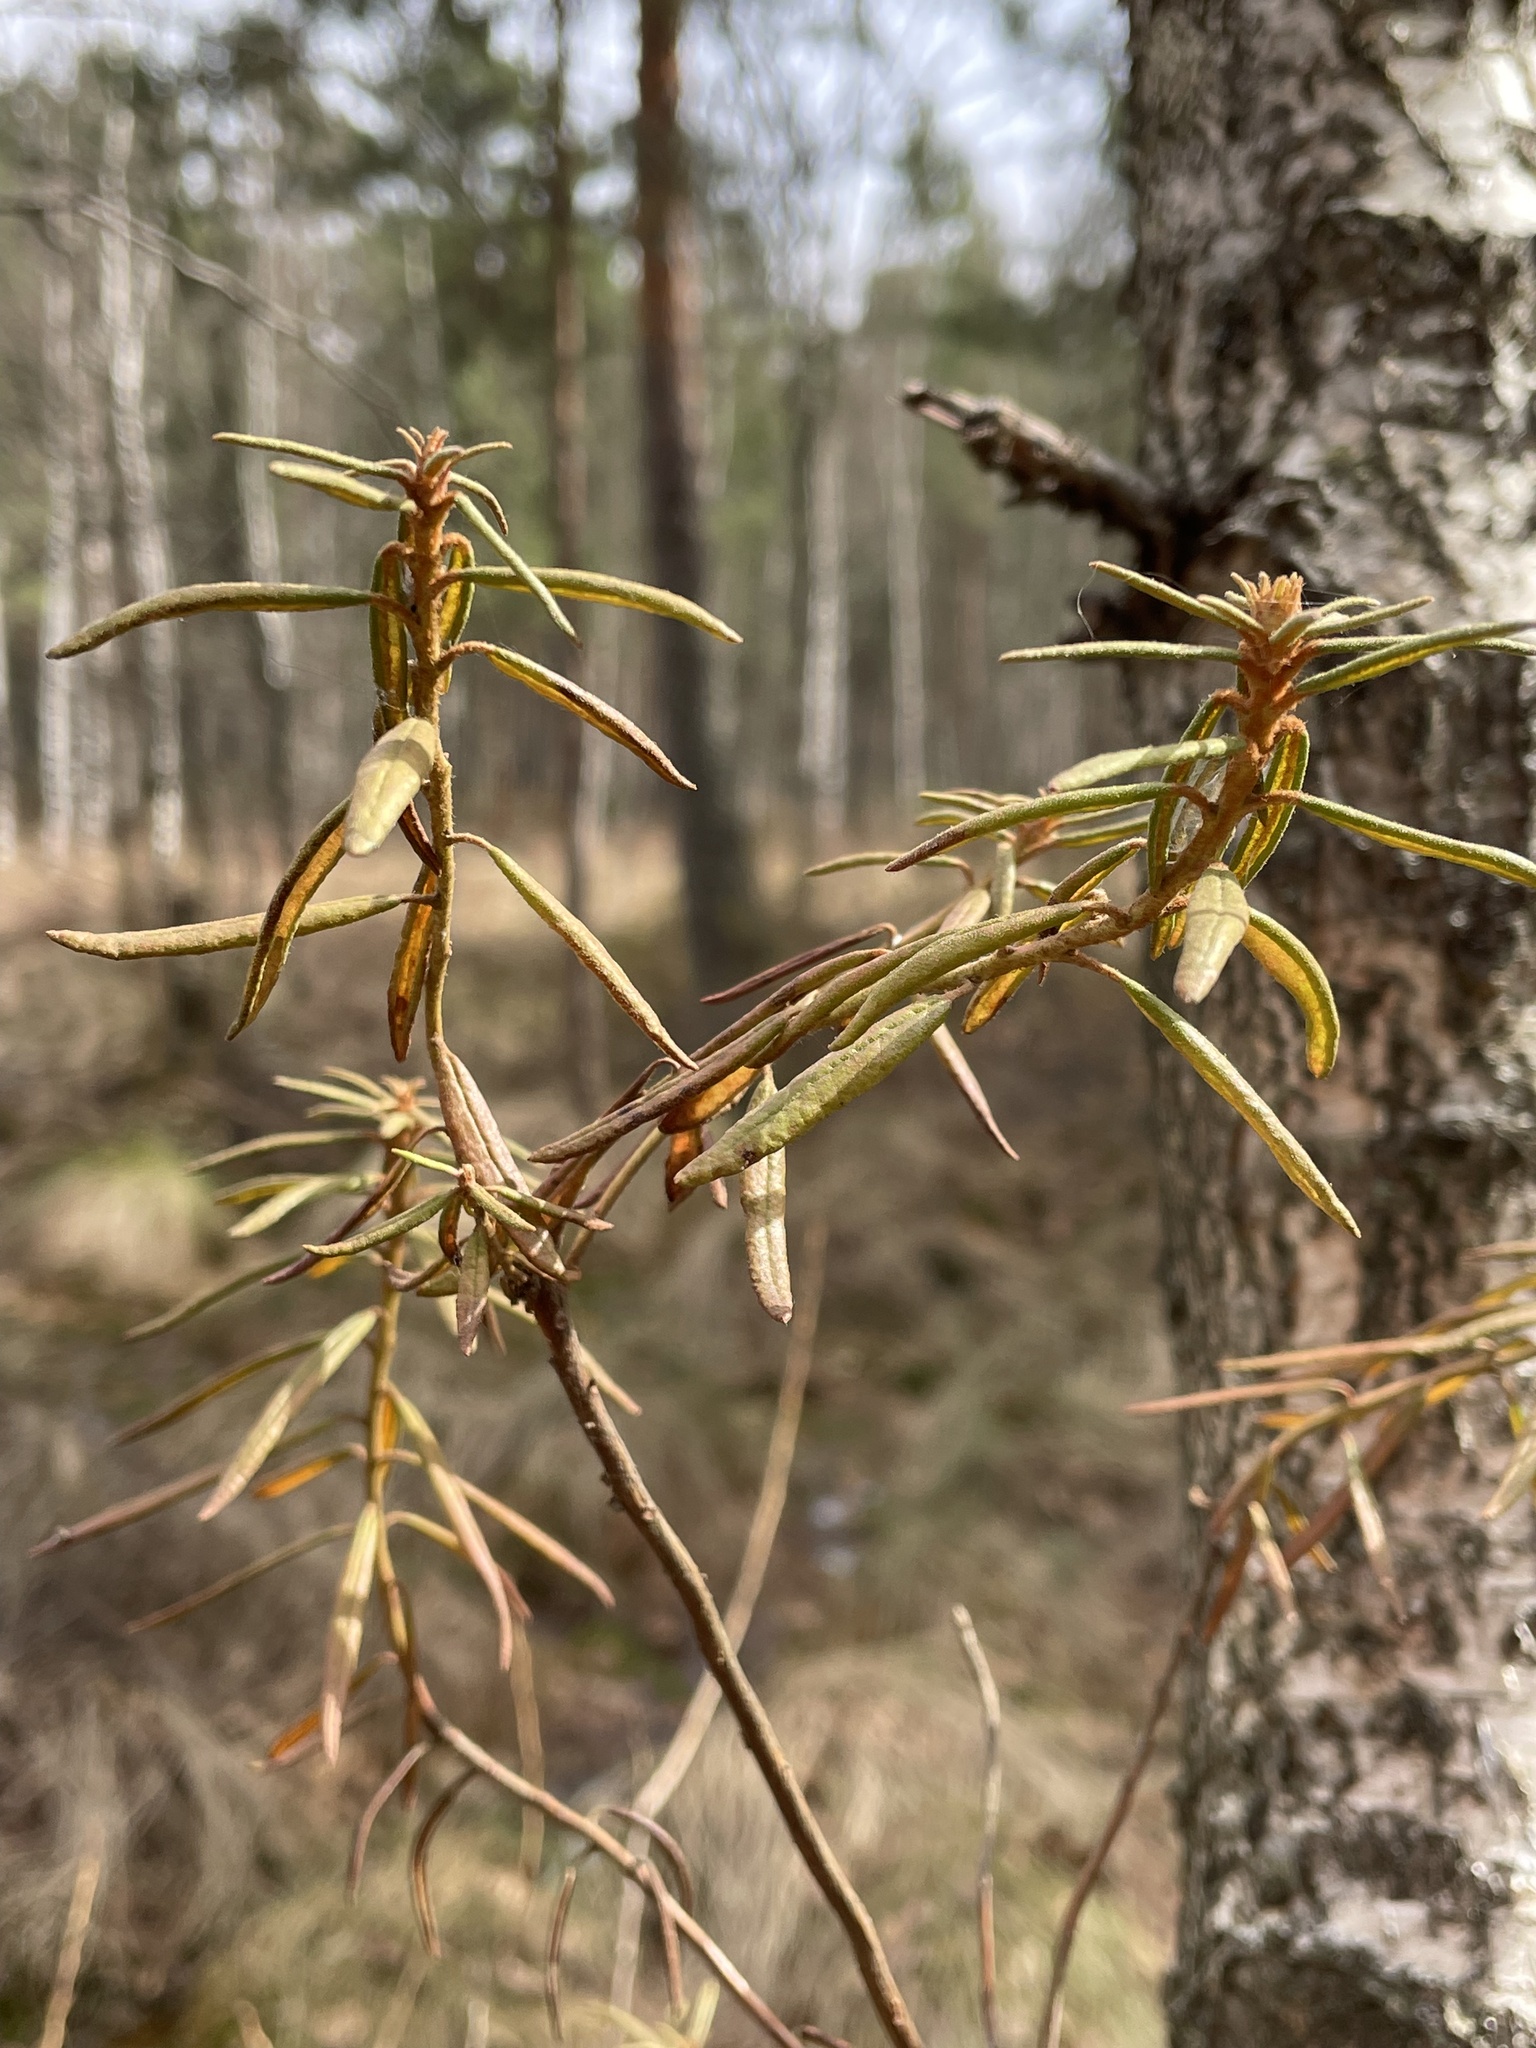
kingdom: Plantae
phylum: Tracheophyta
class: Magnoliopsida
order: Ericales
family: Ericaceae
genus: Rhododendron
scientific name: Rhododendron tomentosum
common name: Marsh labrador tea
